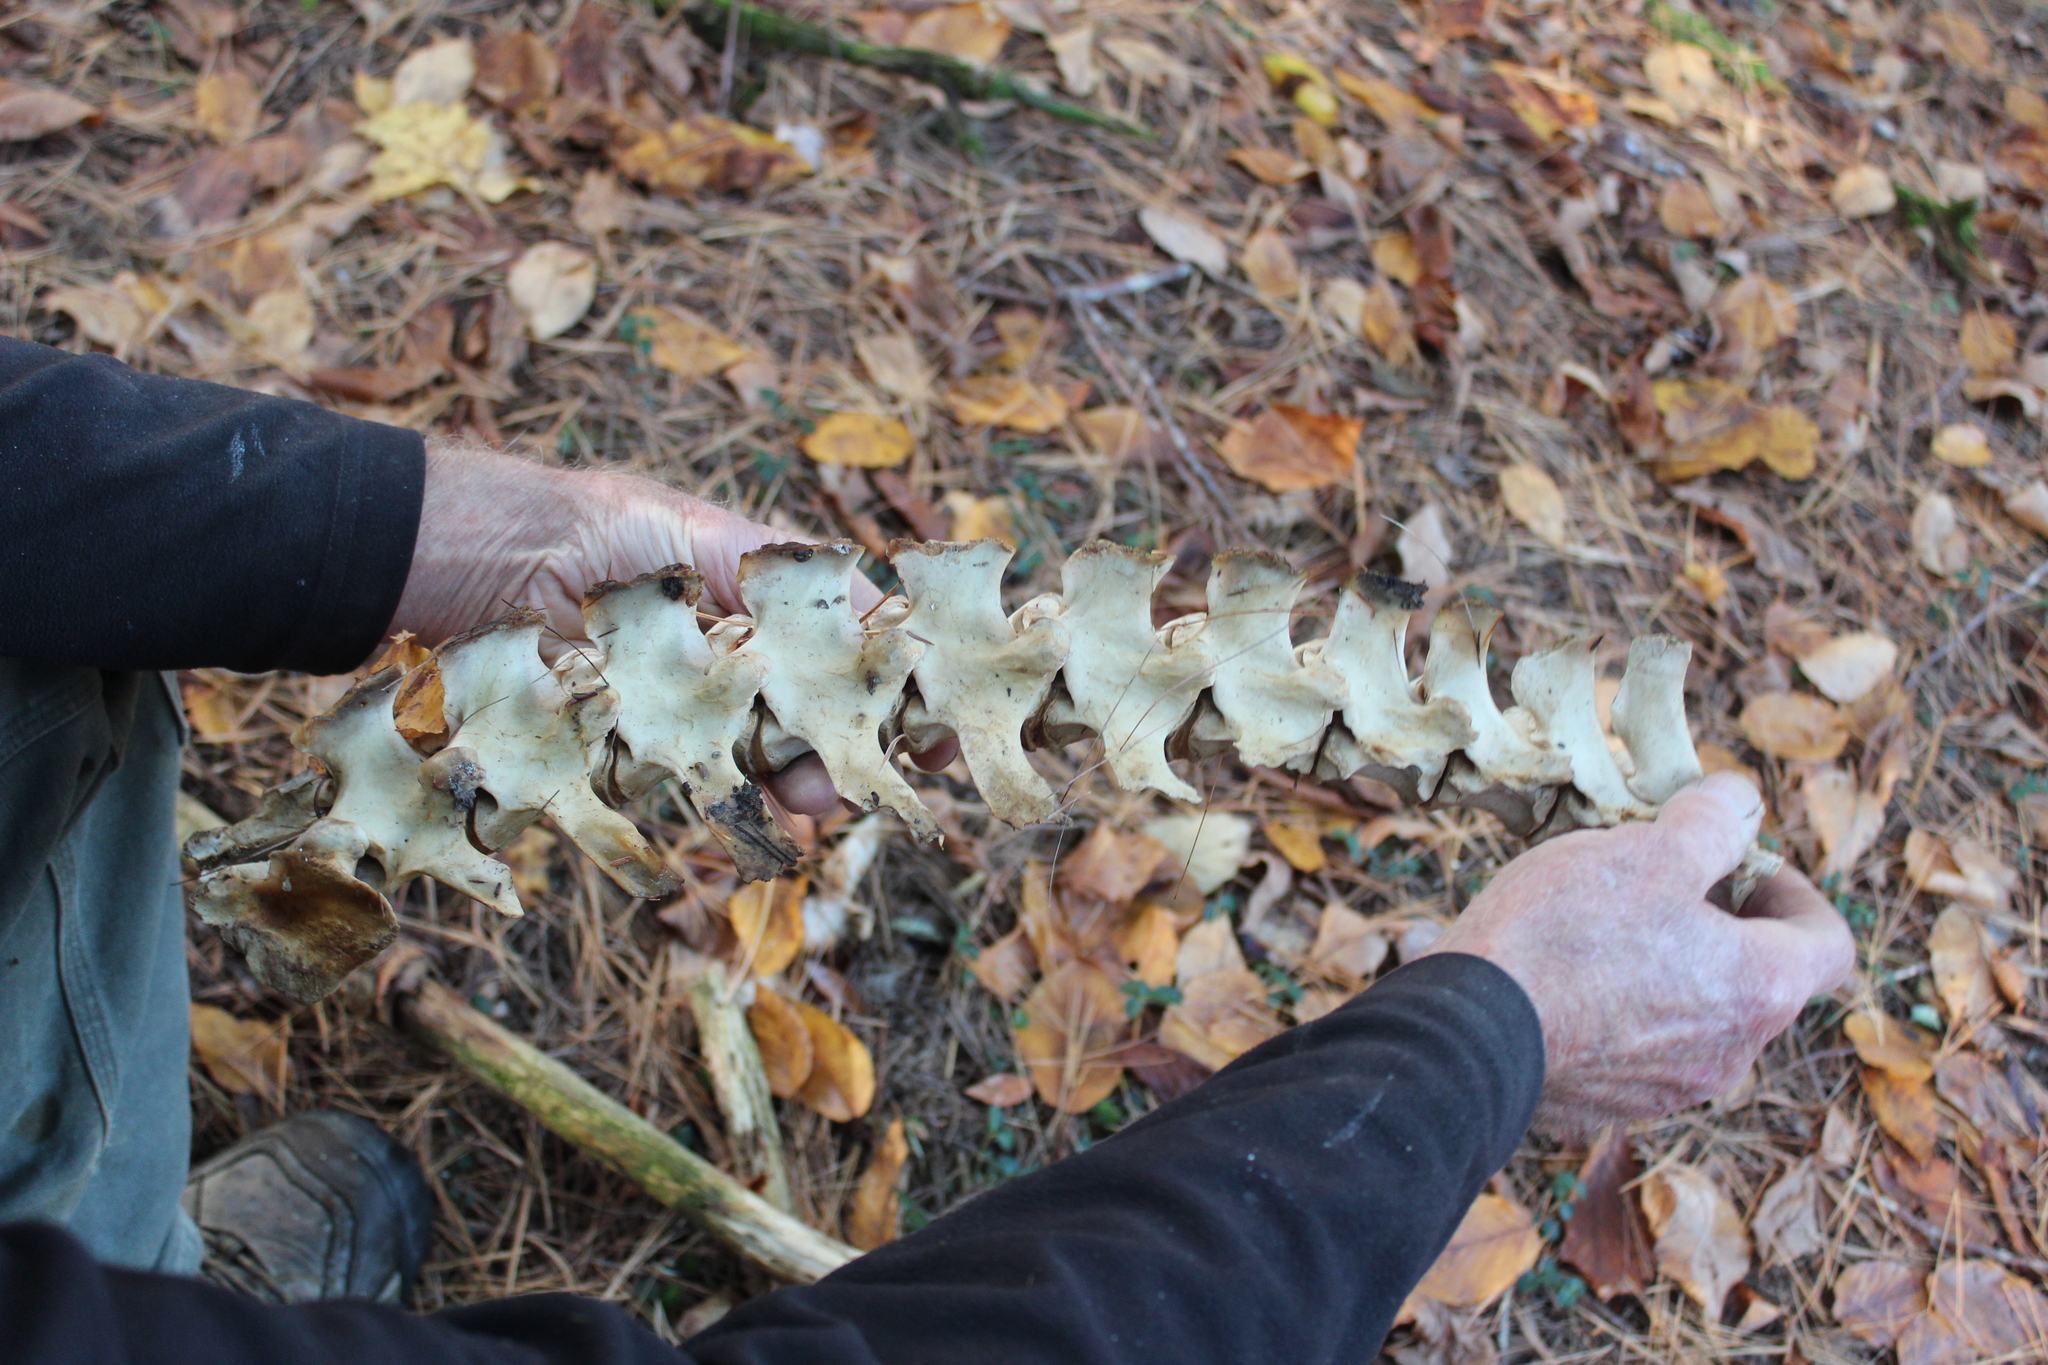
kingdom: Animalia
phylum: Chordata
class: Mammalia
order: Artiodactyla
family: Cervidae
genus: Odocoileus
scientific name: Odocoileus virginianus
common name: White-tailed deer
